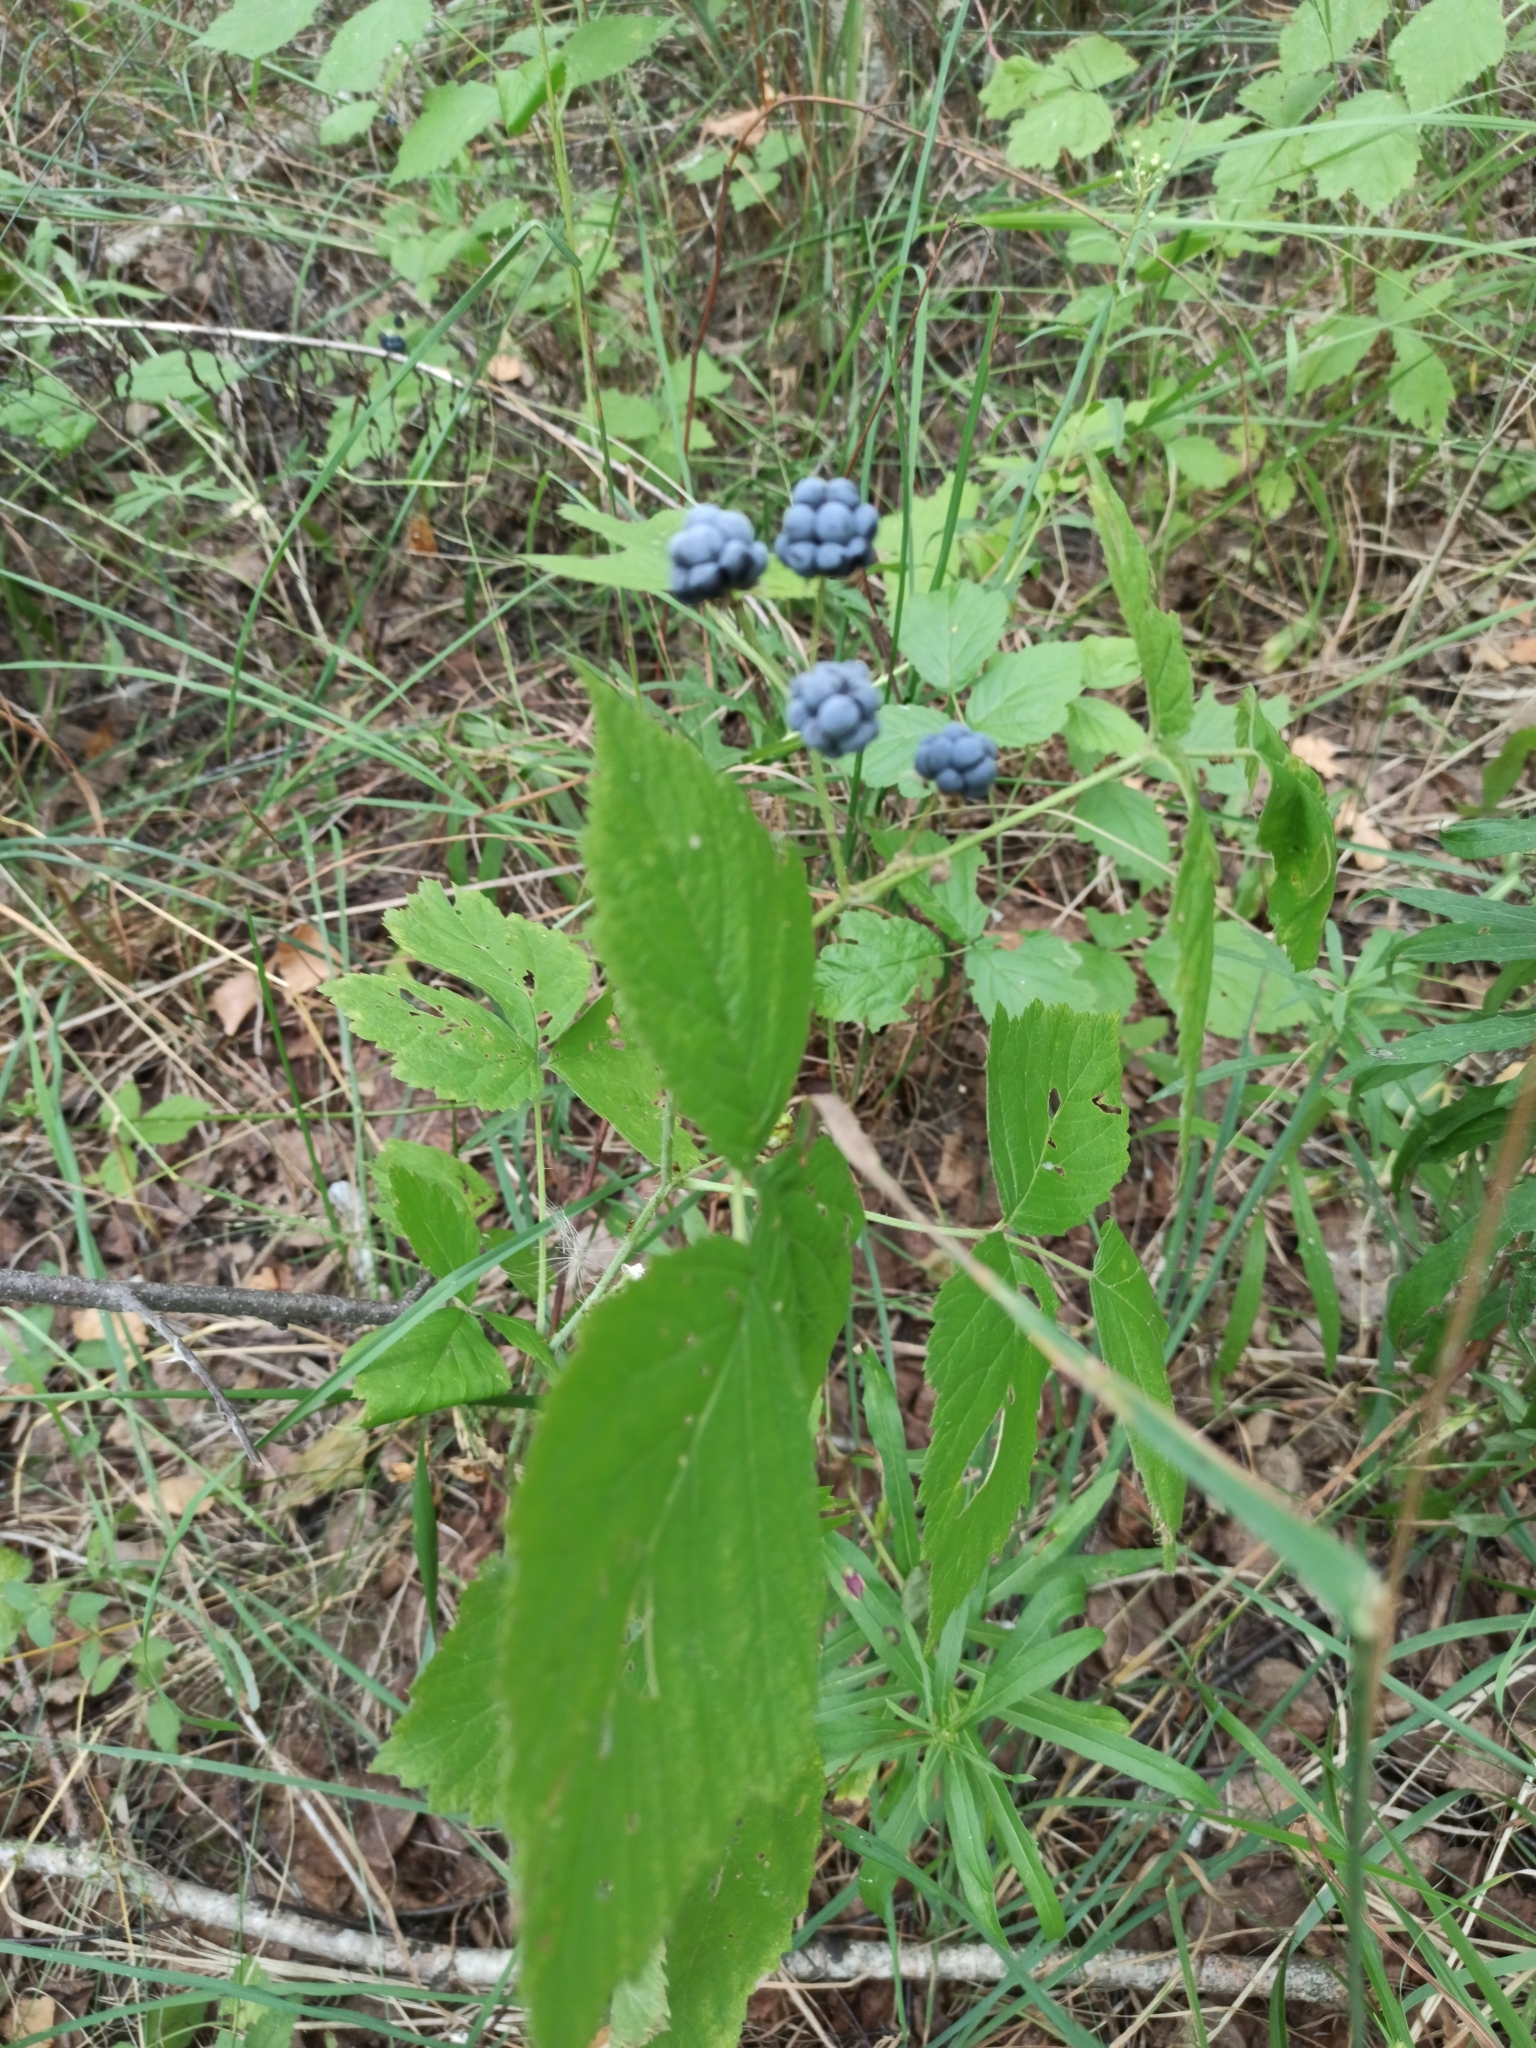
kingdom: Plantae
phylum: Tracheophyta
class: Magnoliopsida
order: Rosales
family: Rosaceae
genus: Rubus
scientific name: Rubus caesius
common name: Dewberry
